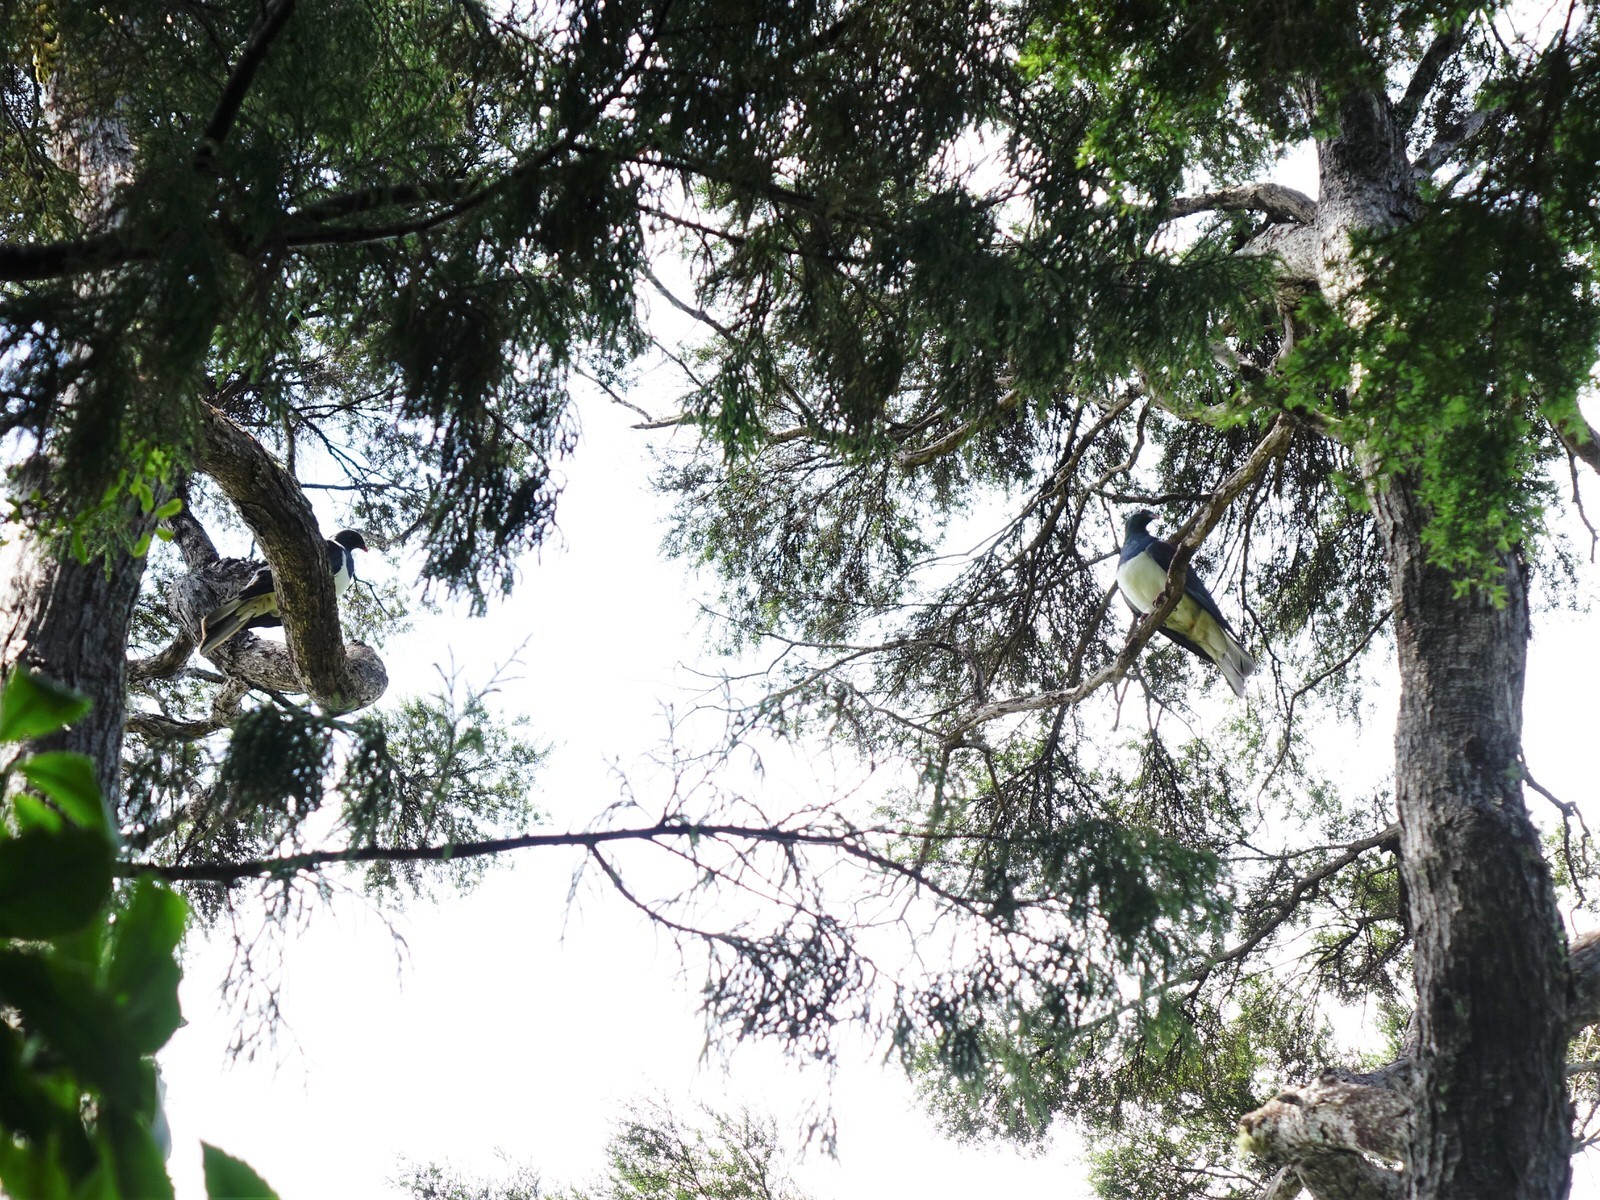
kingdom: Animalia
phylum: Chordata
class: Aves
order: Columbiformes
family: Columbidae
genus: Hemiphaga
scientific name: Hemiphaga novaeseelandiae
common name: New zealand pigeon
